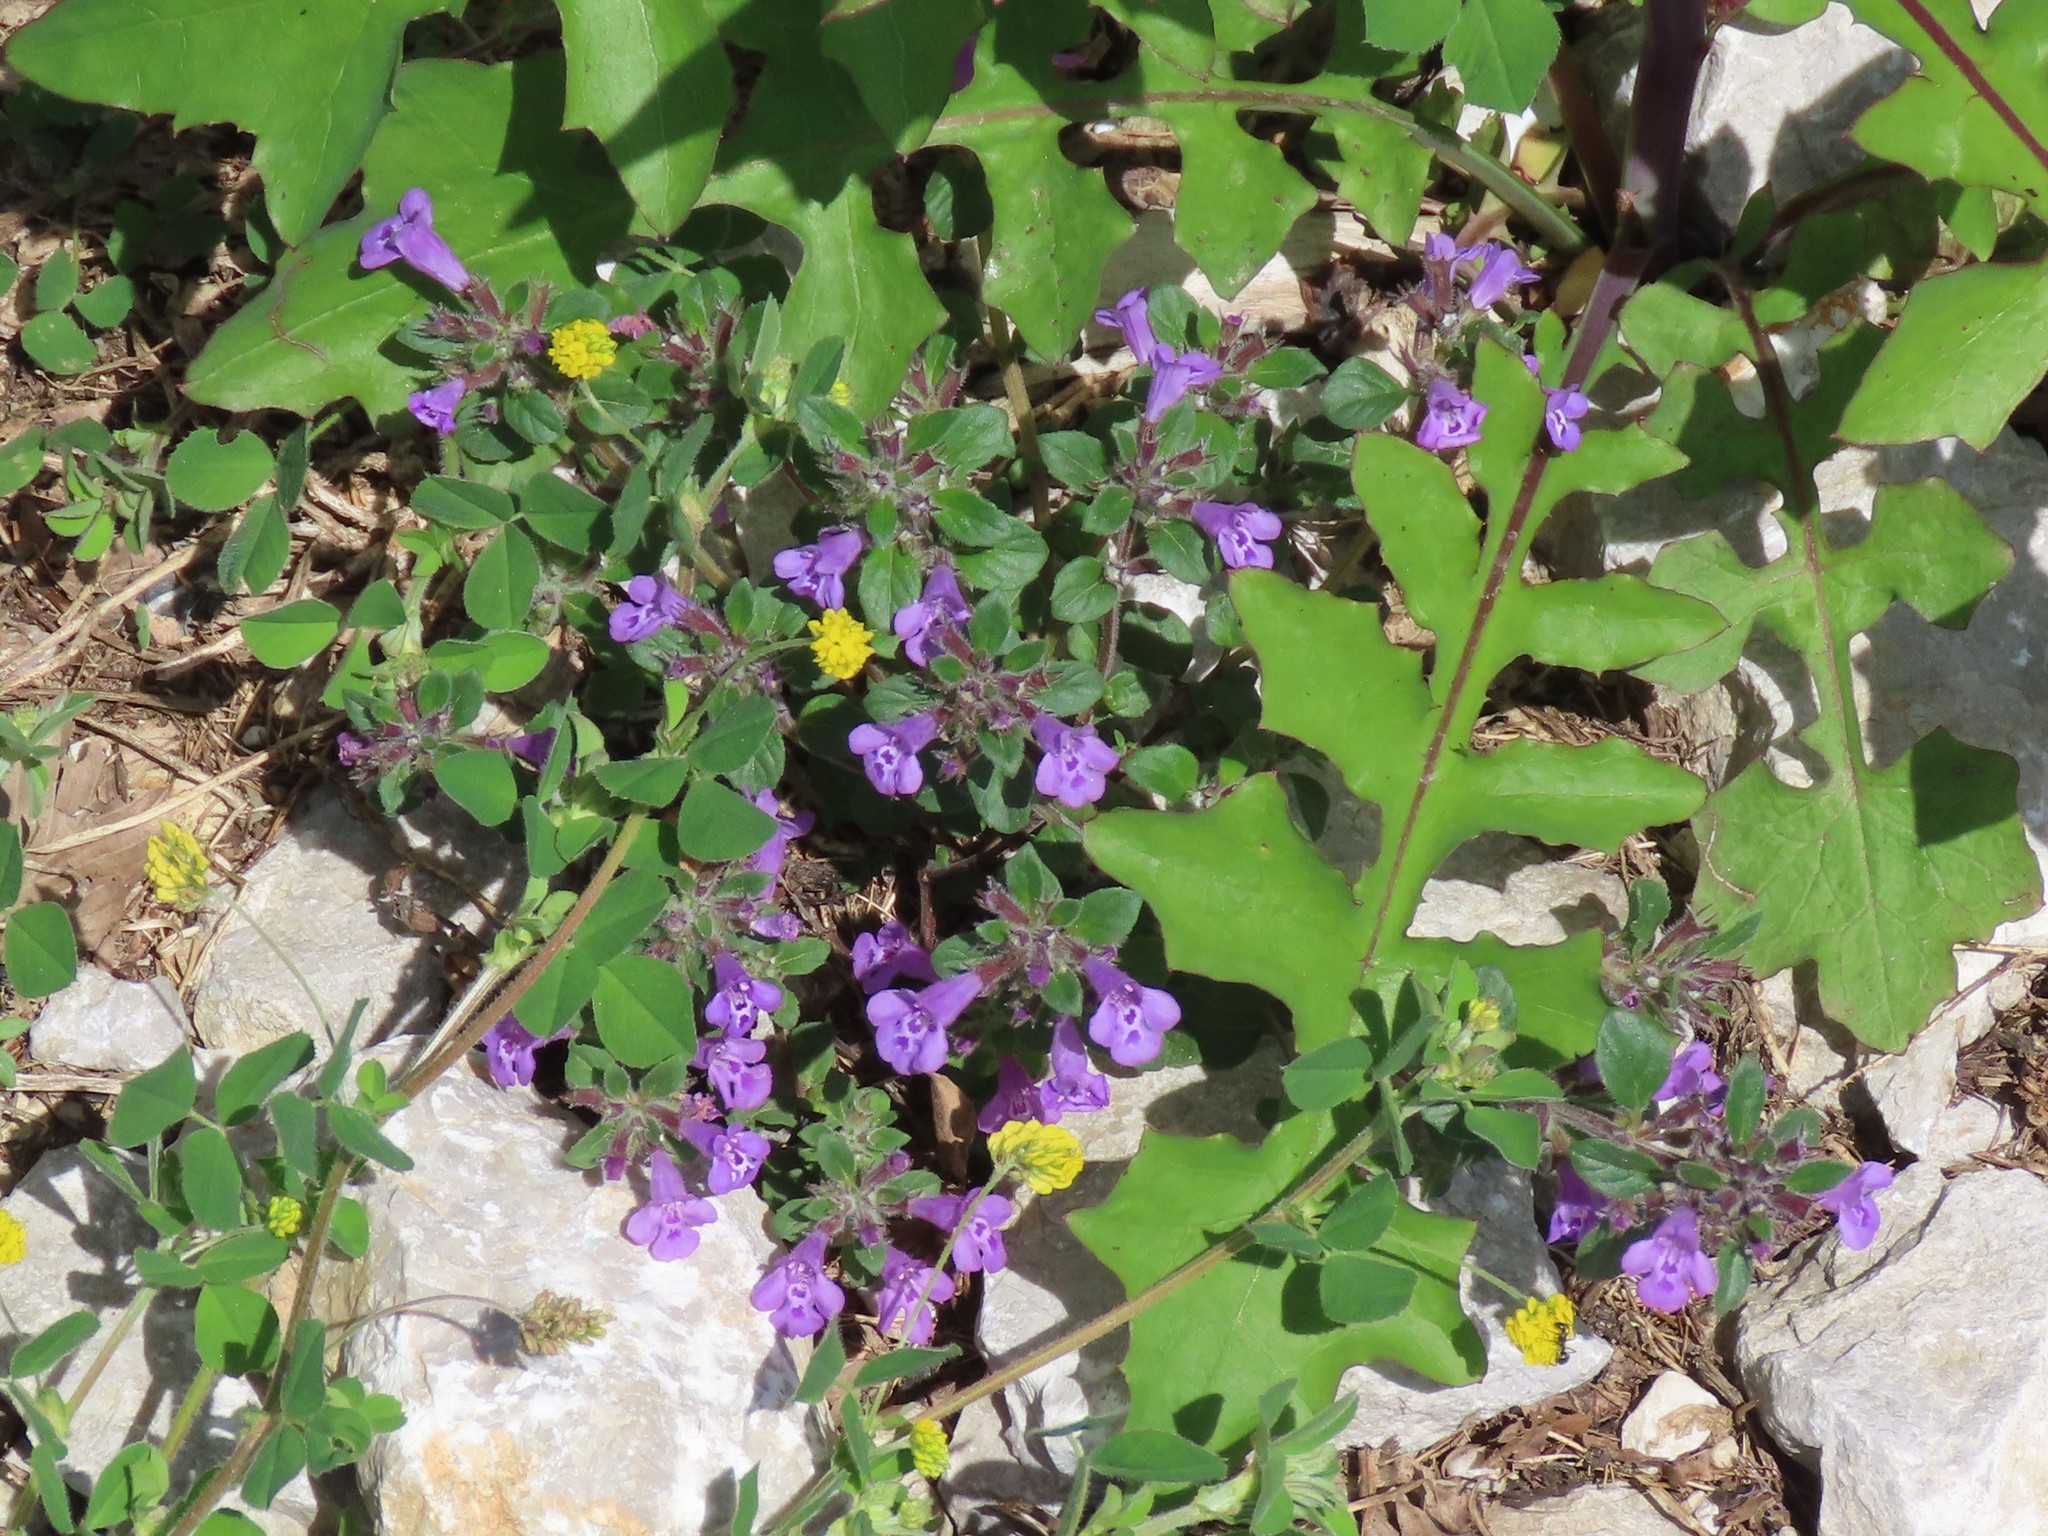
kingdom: Plantae
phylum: Tracheophyta
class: Magnoliopsida
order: Lamiales
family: Lamiaceae
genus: Clinopodium
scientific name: Clinopodium alpinum
